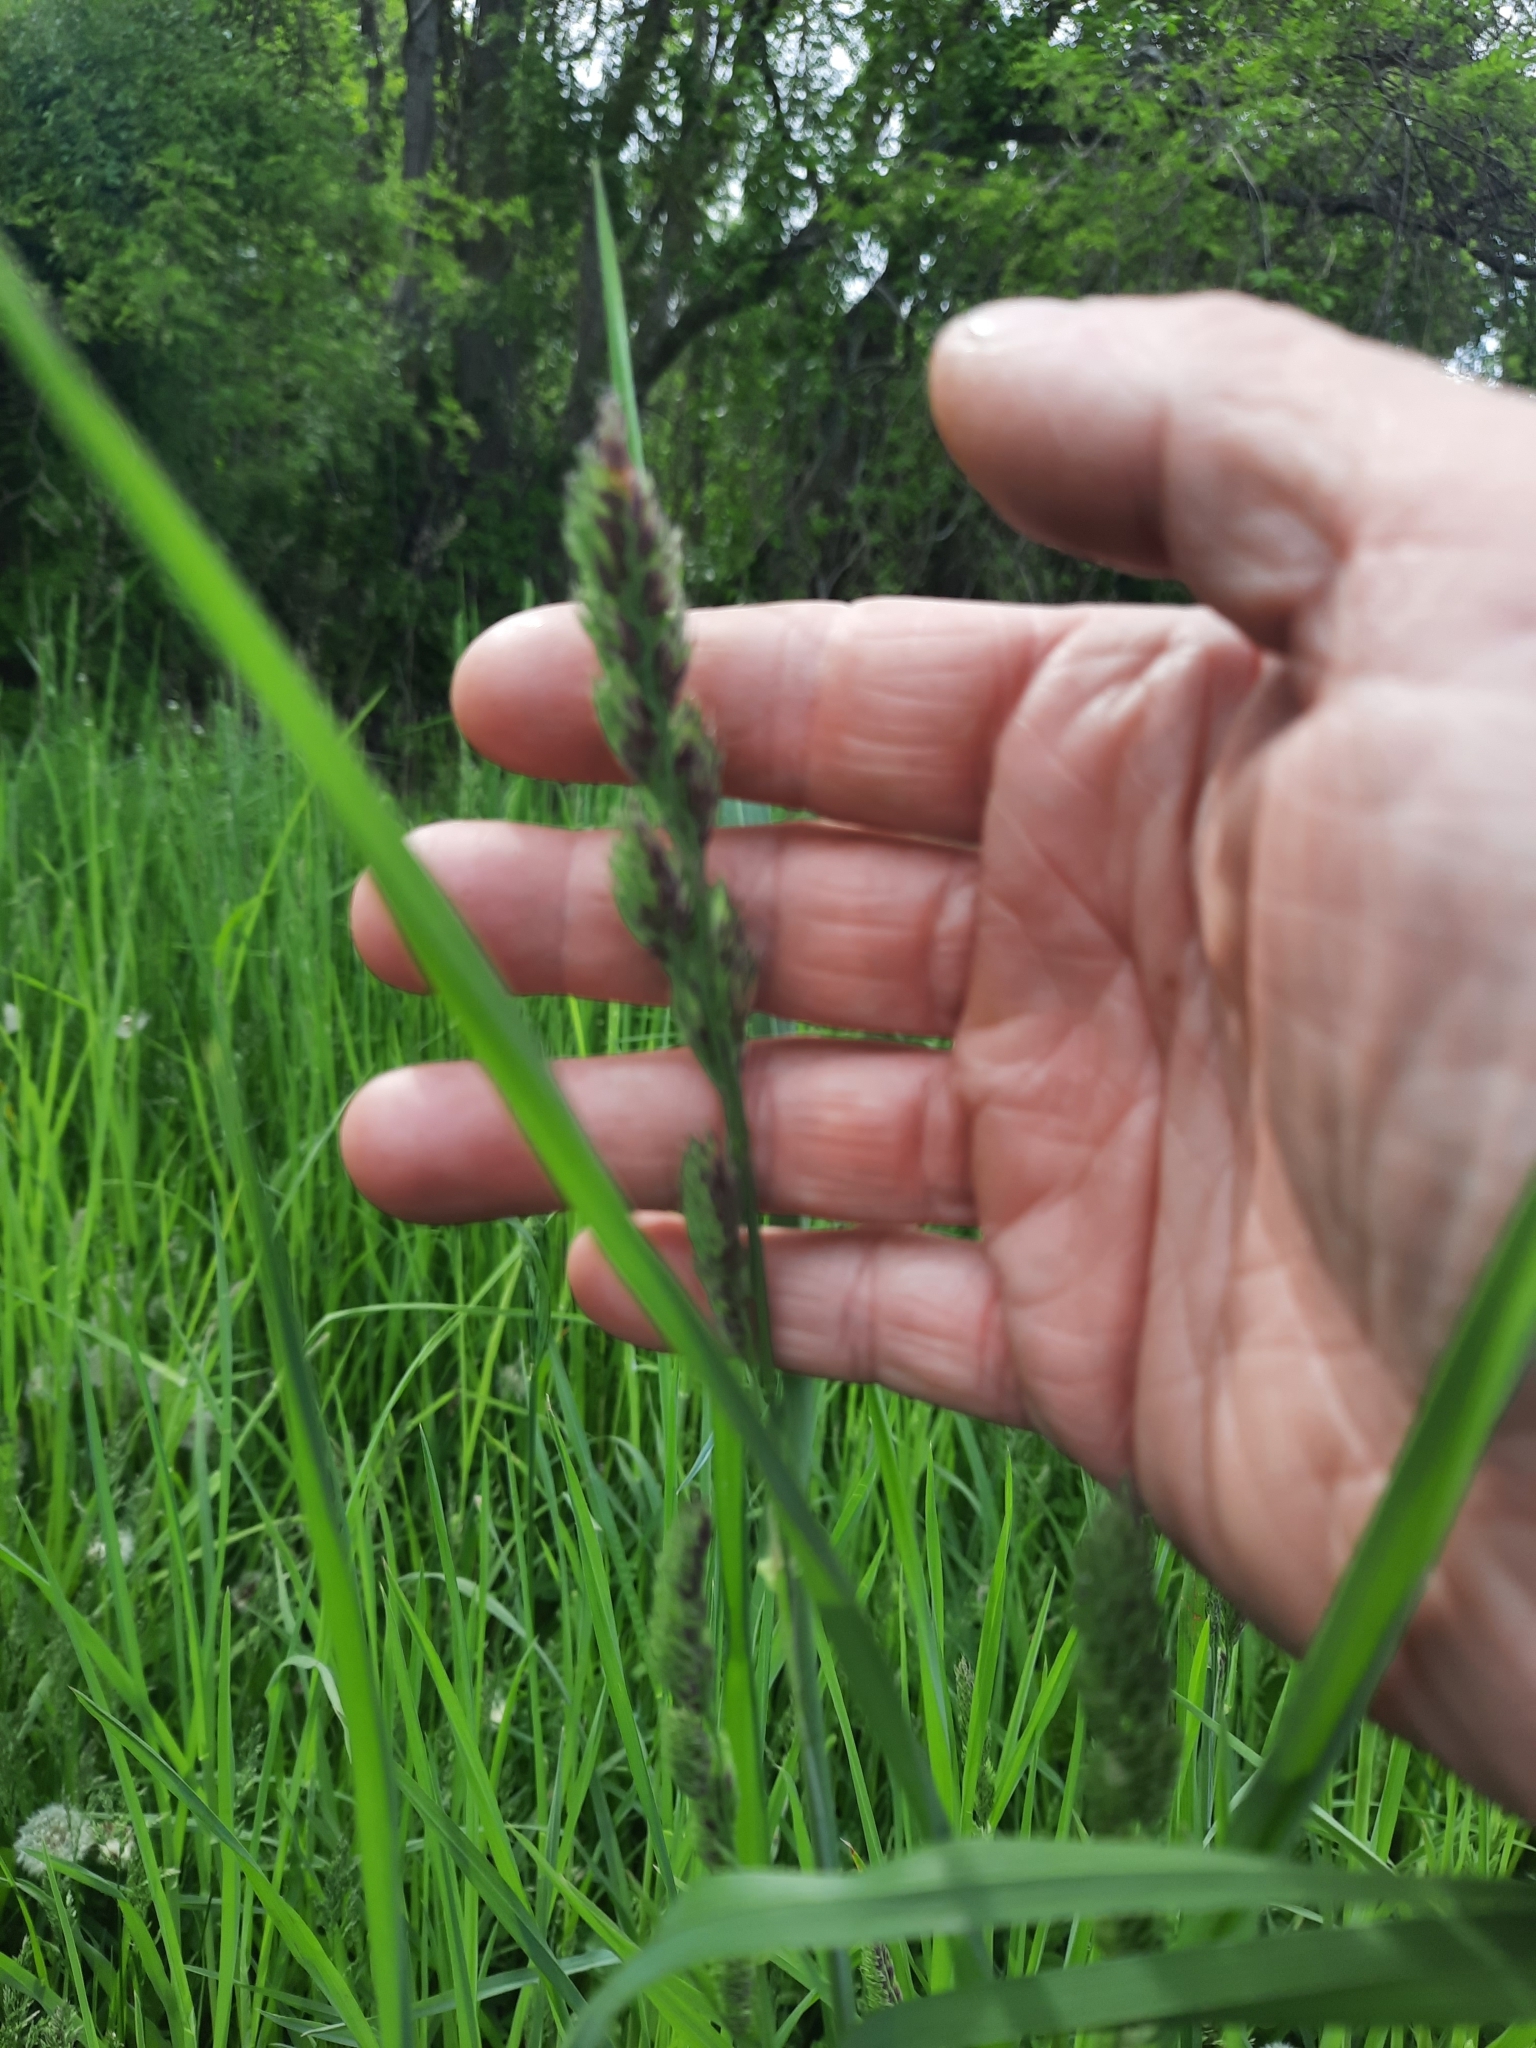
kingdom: Plantae
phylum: Tracheophyta
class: Liliopsida
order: Poales
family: Poaceae
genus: Dactylis
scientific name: Dactylis glomerata
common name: Orchardgrass
